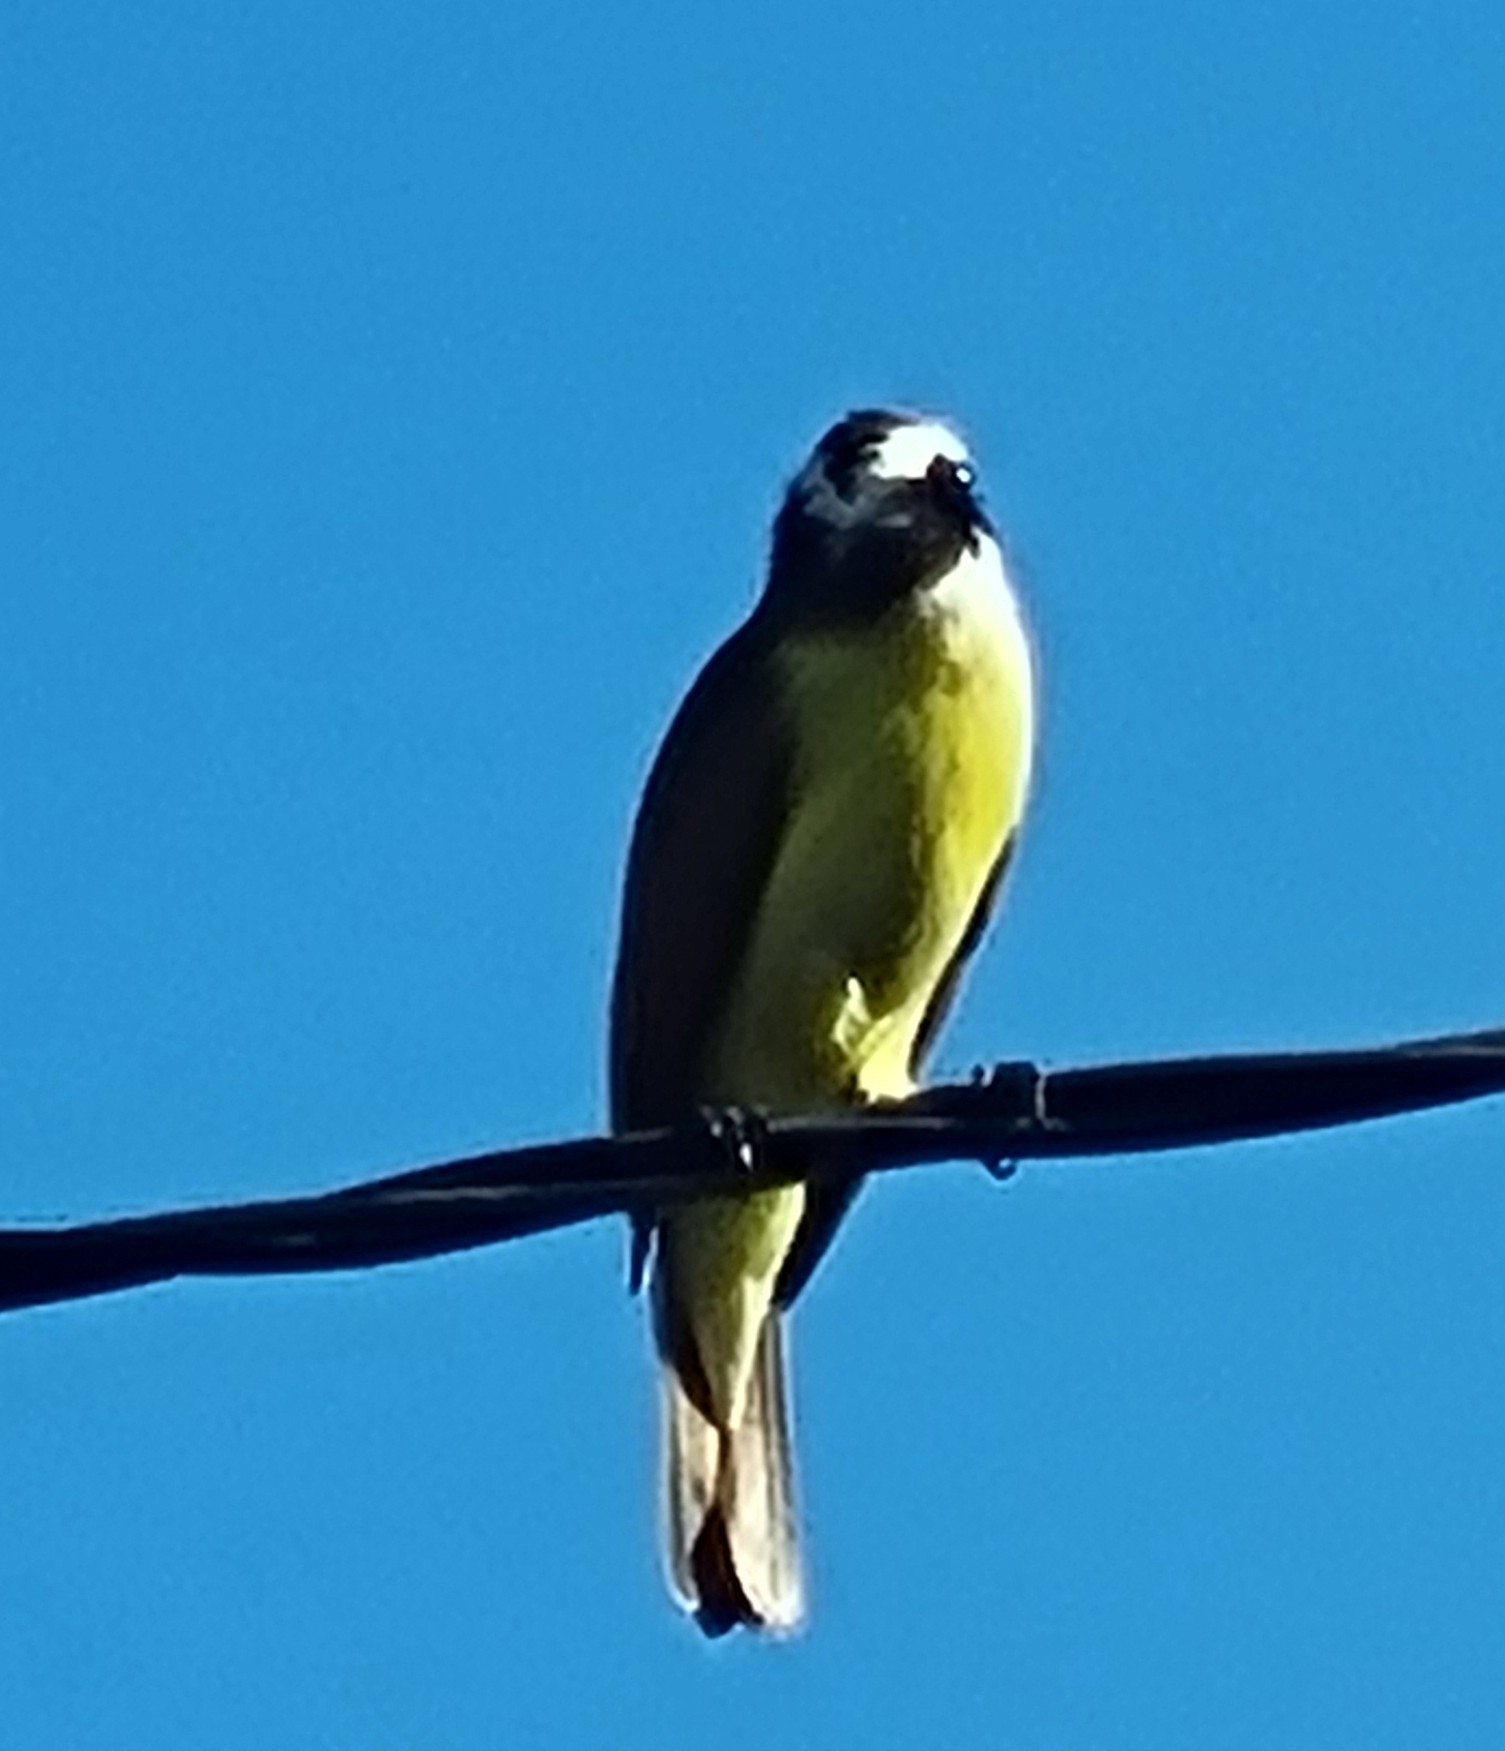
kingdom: Animalia
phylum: Chordata
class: Aves
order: Passeriformes
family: Tyrannidae
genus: Pitangus
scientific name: Pitangus sulphuratus
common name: Great kiskadee
